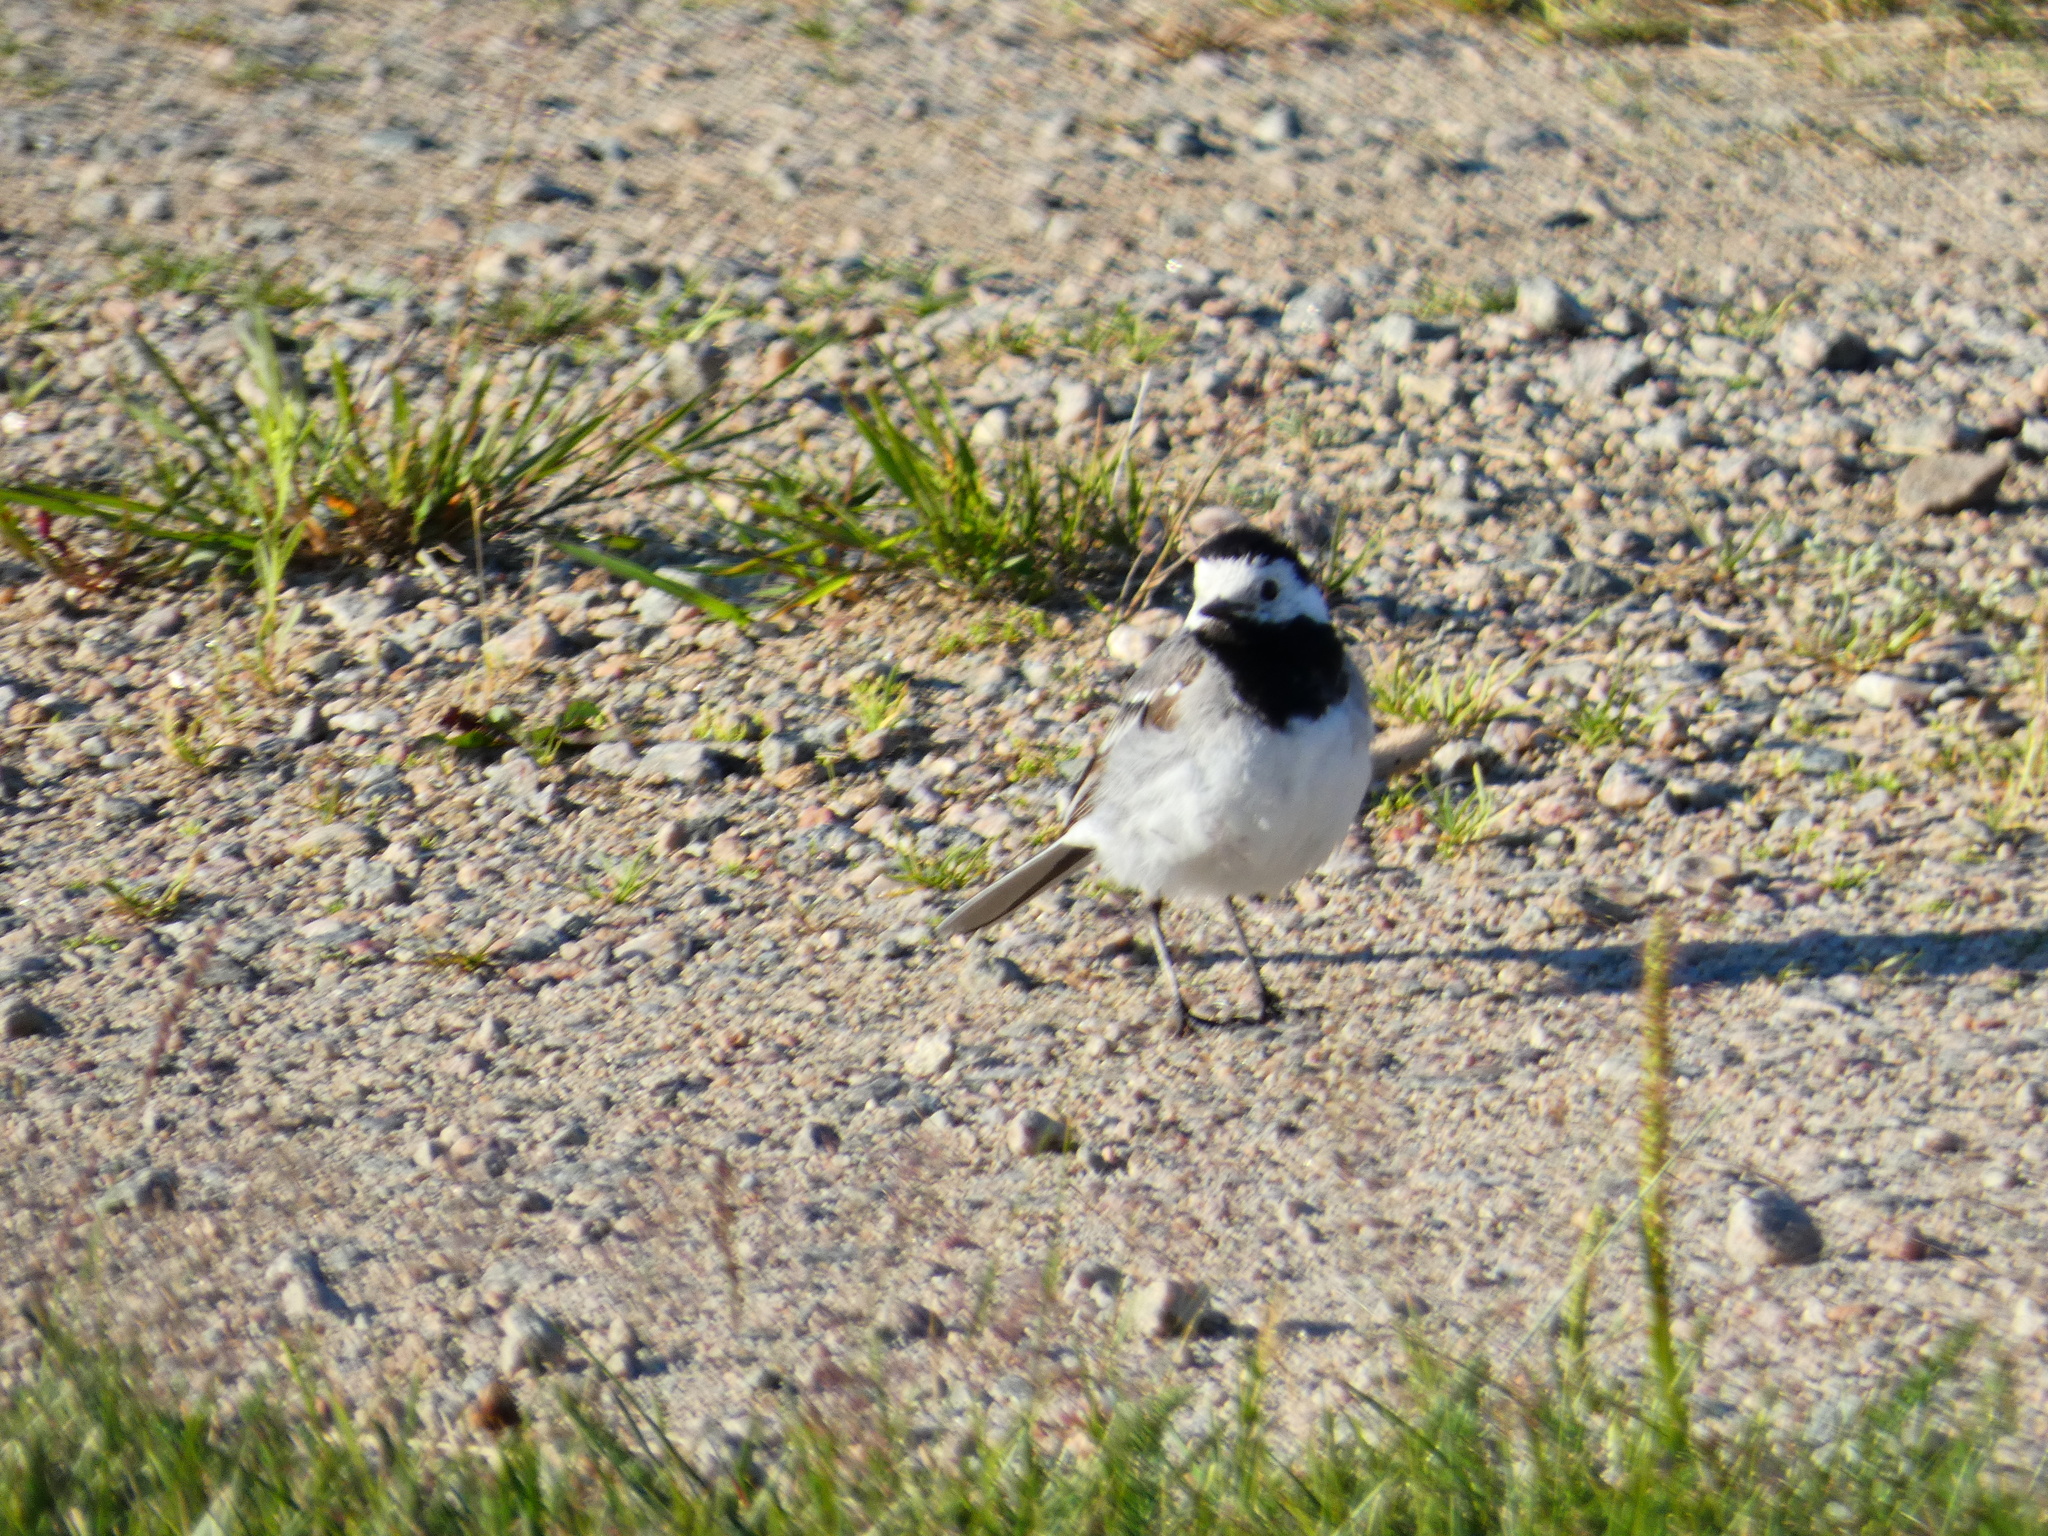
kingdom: Animalia
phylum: Chordata
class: Aves
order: Passeriformes
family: Motacillidae
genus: Motacilla
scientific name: Motacilla alba
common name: White wagtail
